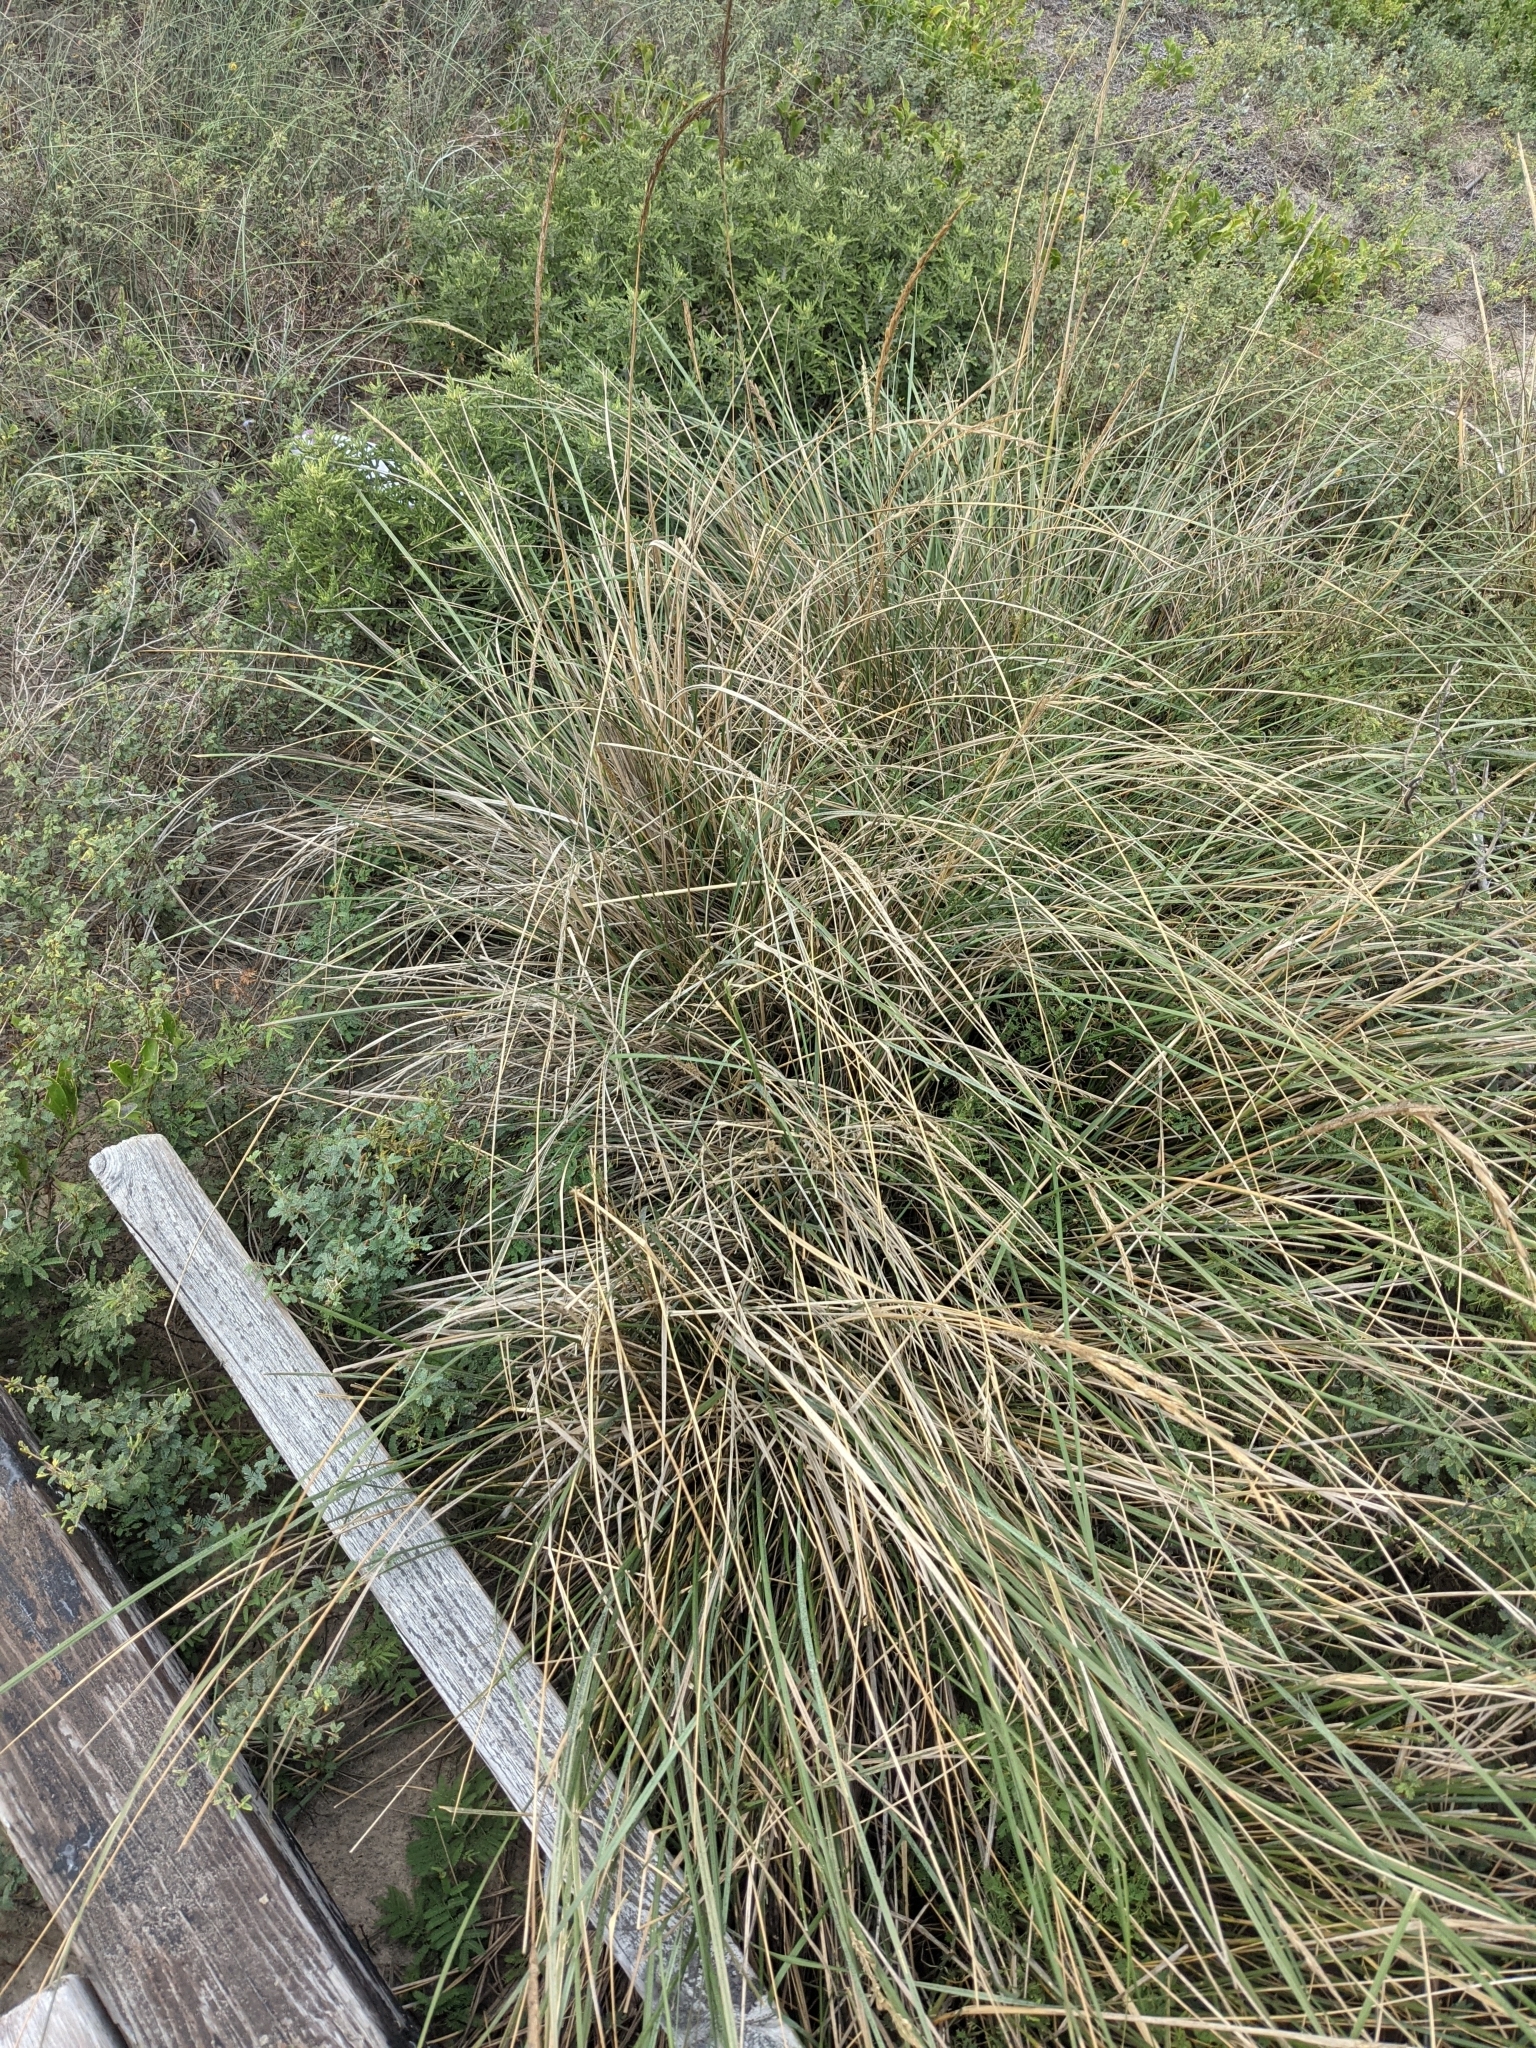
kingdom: Plantae
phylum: Tracheophyta
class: Liliopsida
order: Poales
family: Poaceae
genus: Sporobolus
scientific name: Sporobolus spartinae
